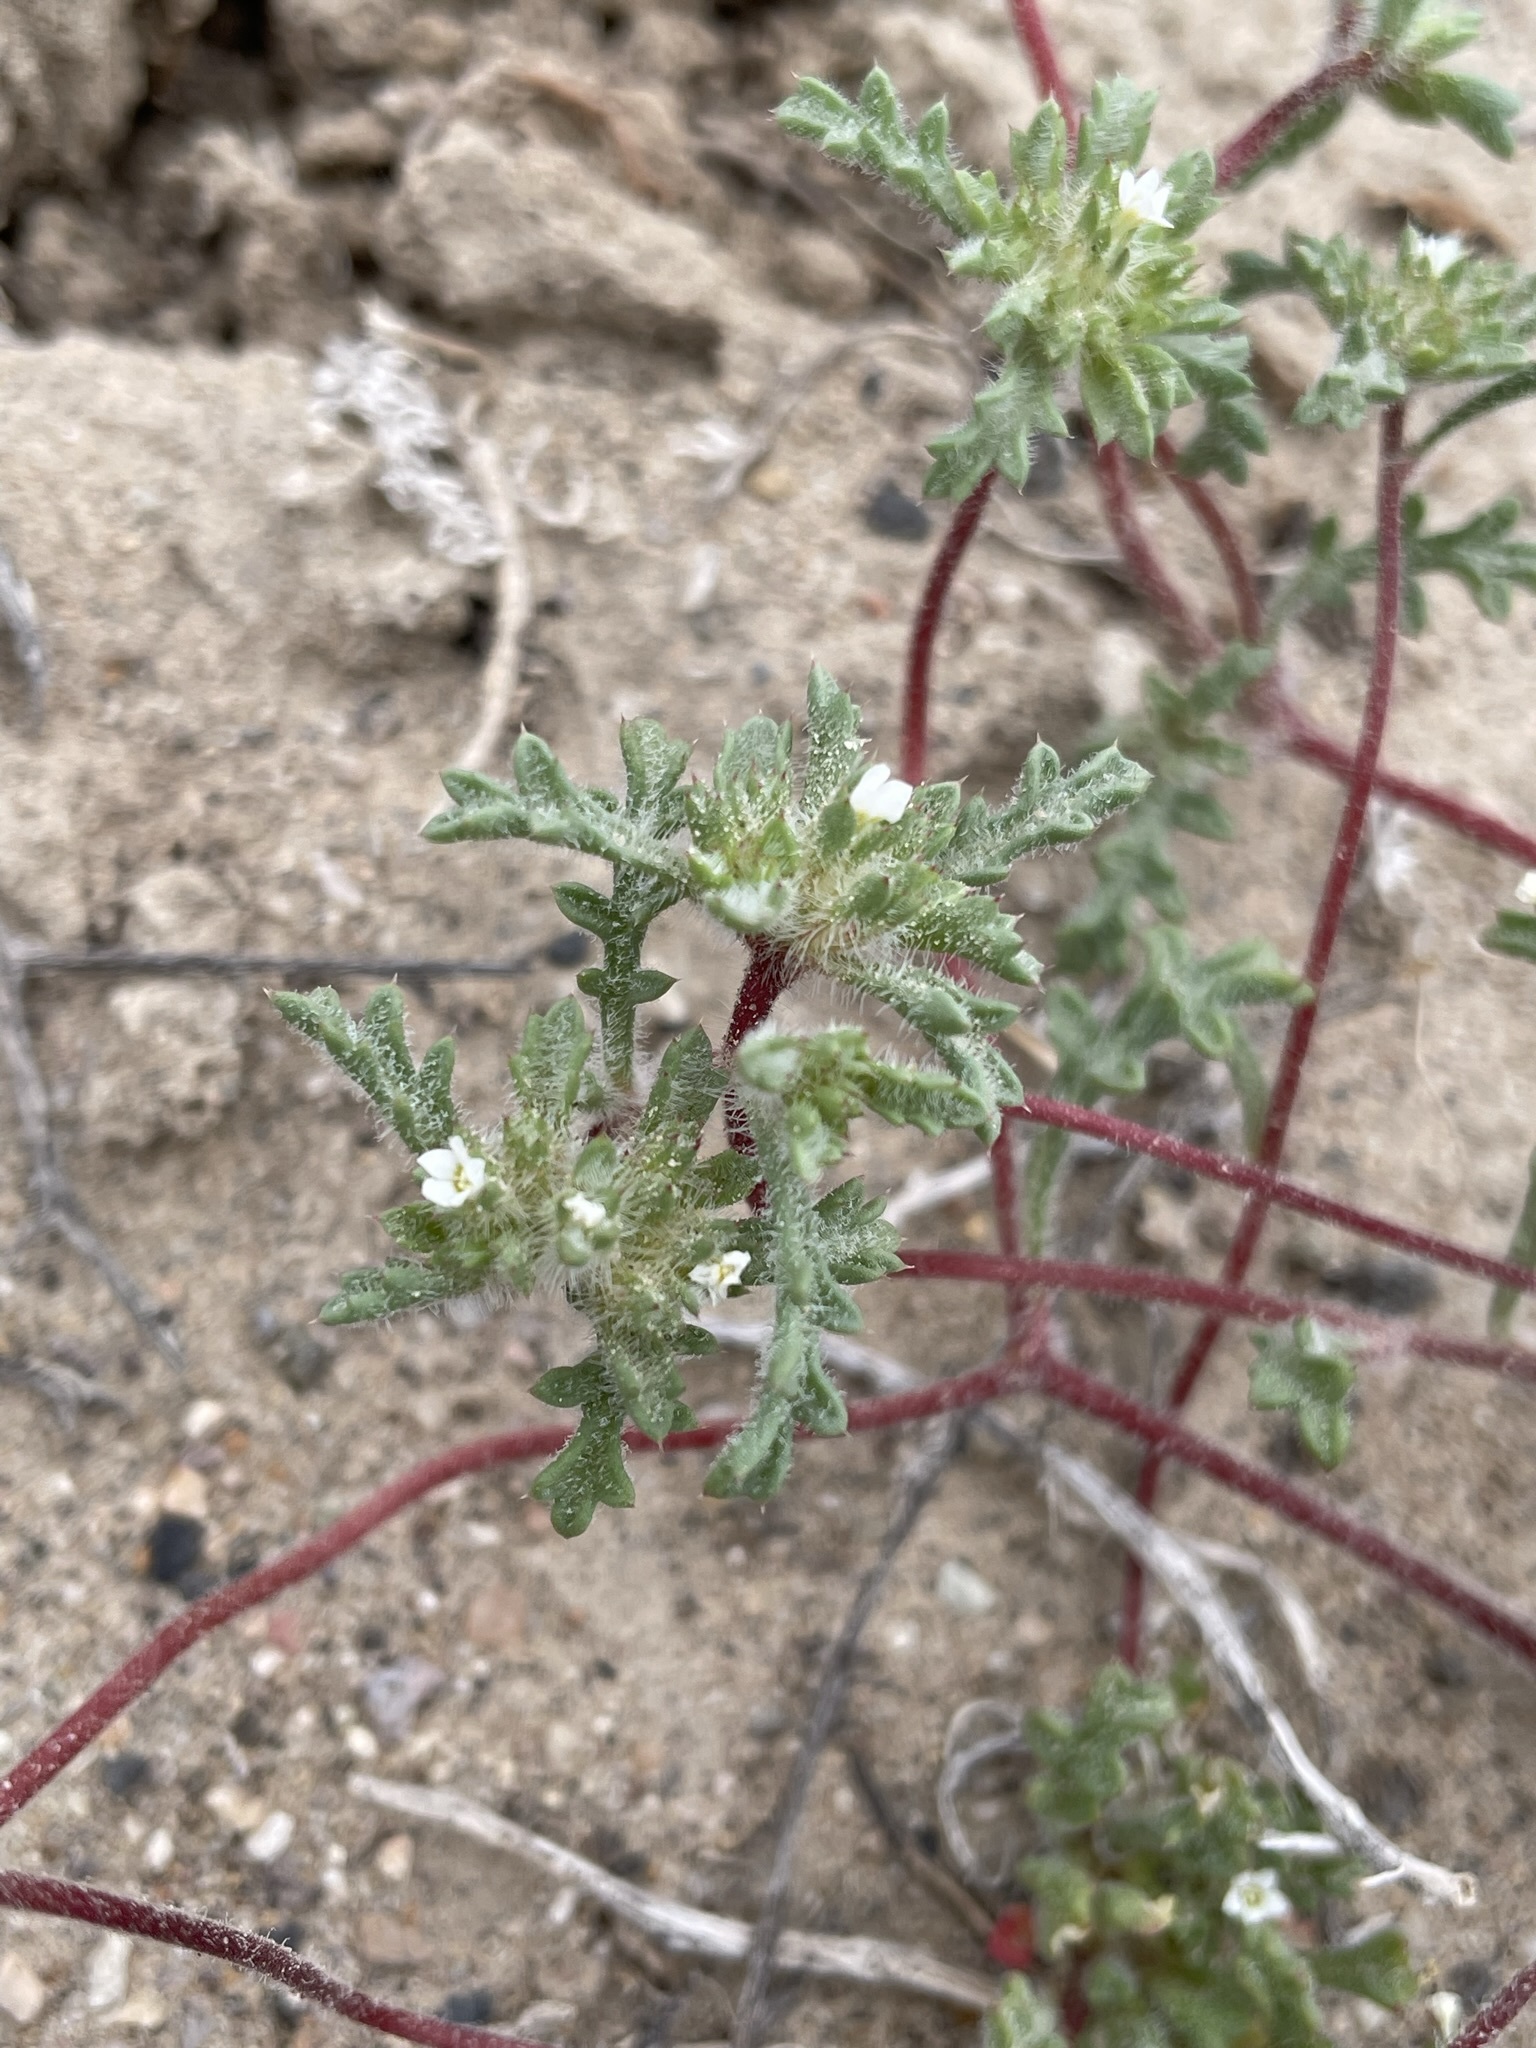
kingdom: Plantae
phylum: Tracheophyta
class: Magnoliopsida
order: Ericales
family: Polemoniaceae
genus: Ipomopsis
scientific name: Ipomopsis polycladon
